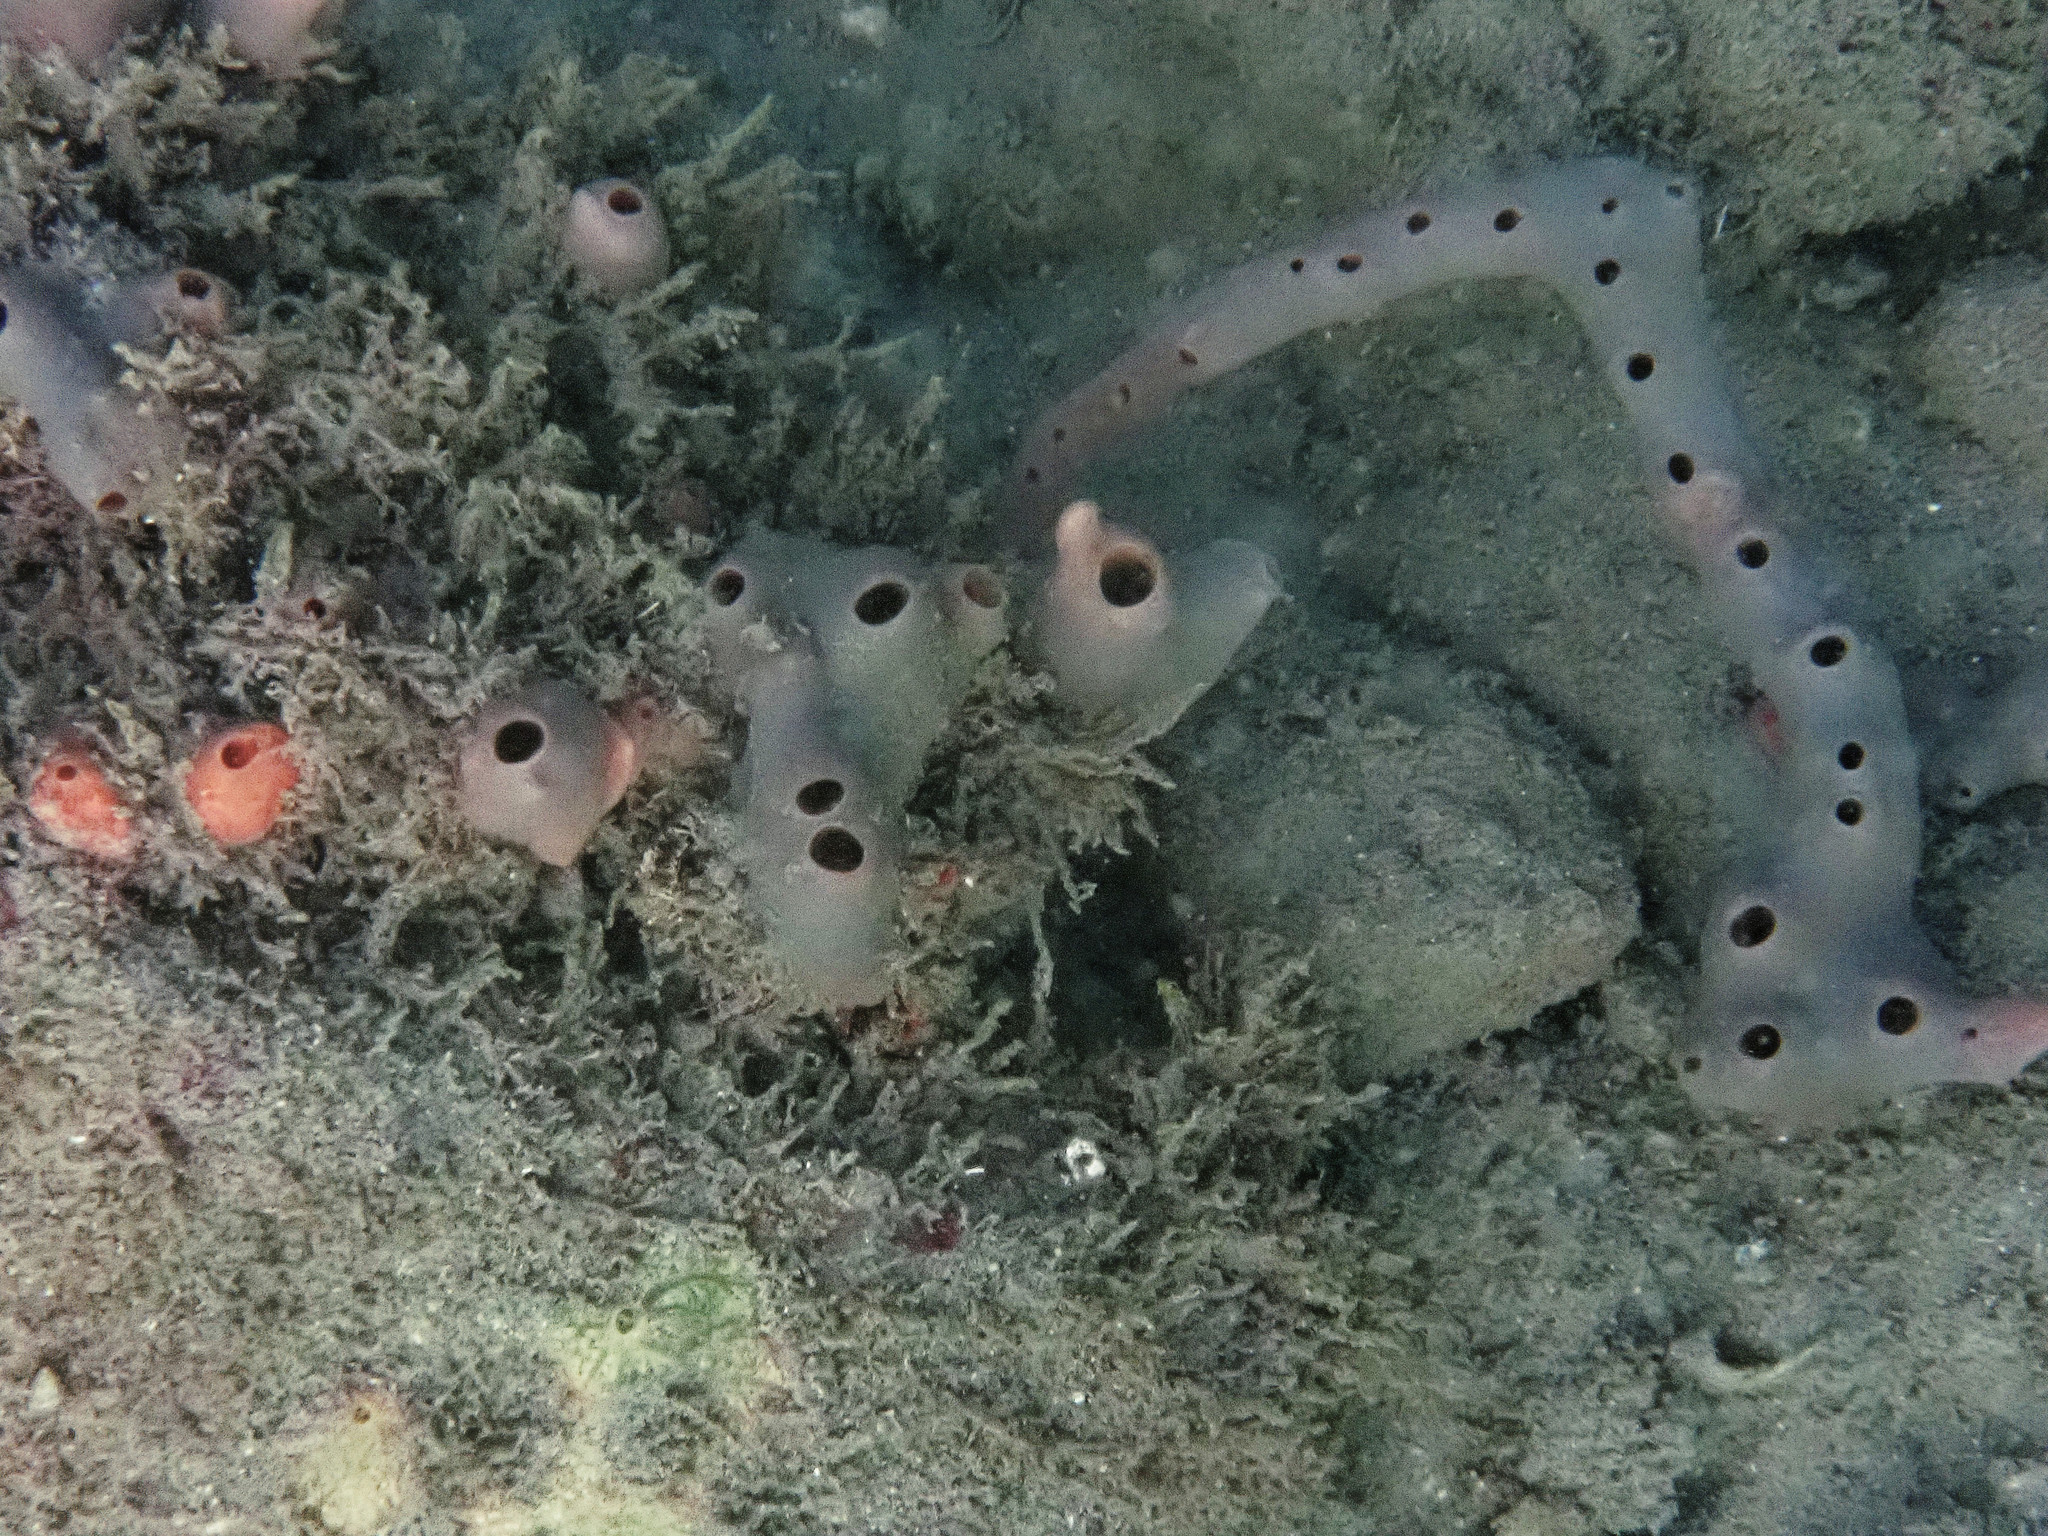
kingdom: Animalia
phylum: Porifera
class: Demospongiae
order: Poecilosclerida
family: Desmacididae
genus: Desmapsamma
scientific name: Desmapsamma anchorata
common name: Lumpy overgrowing sponge
